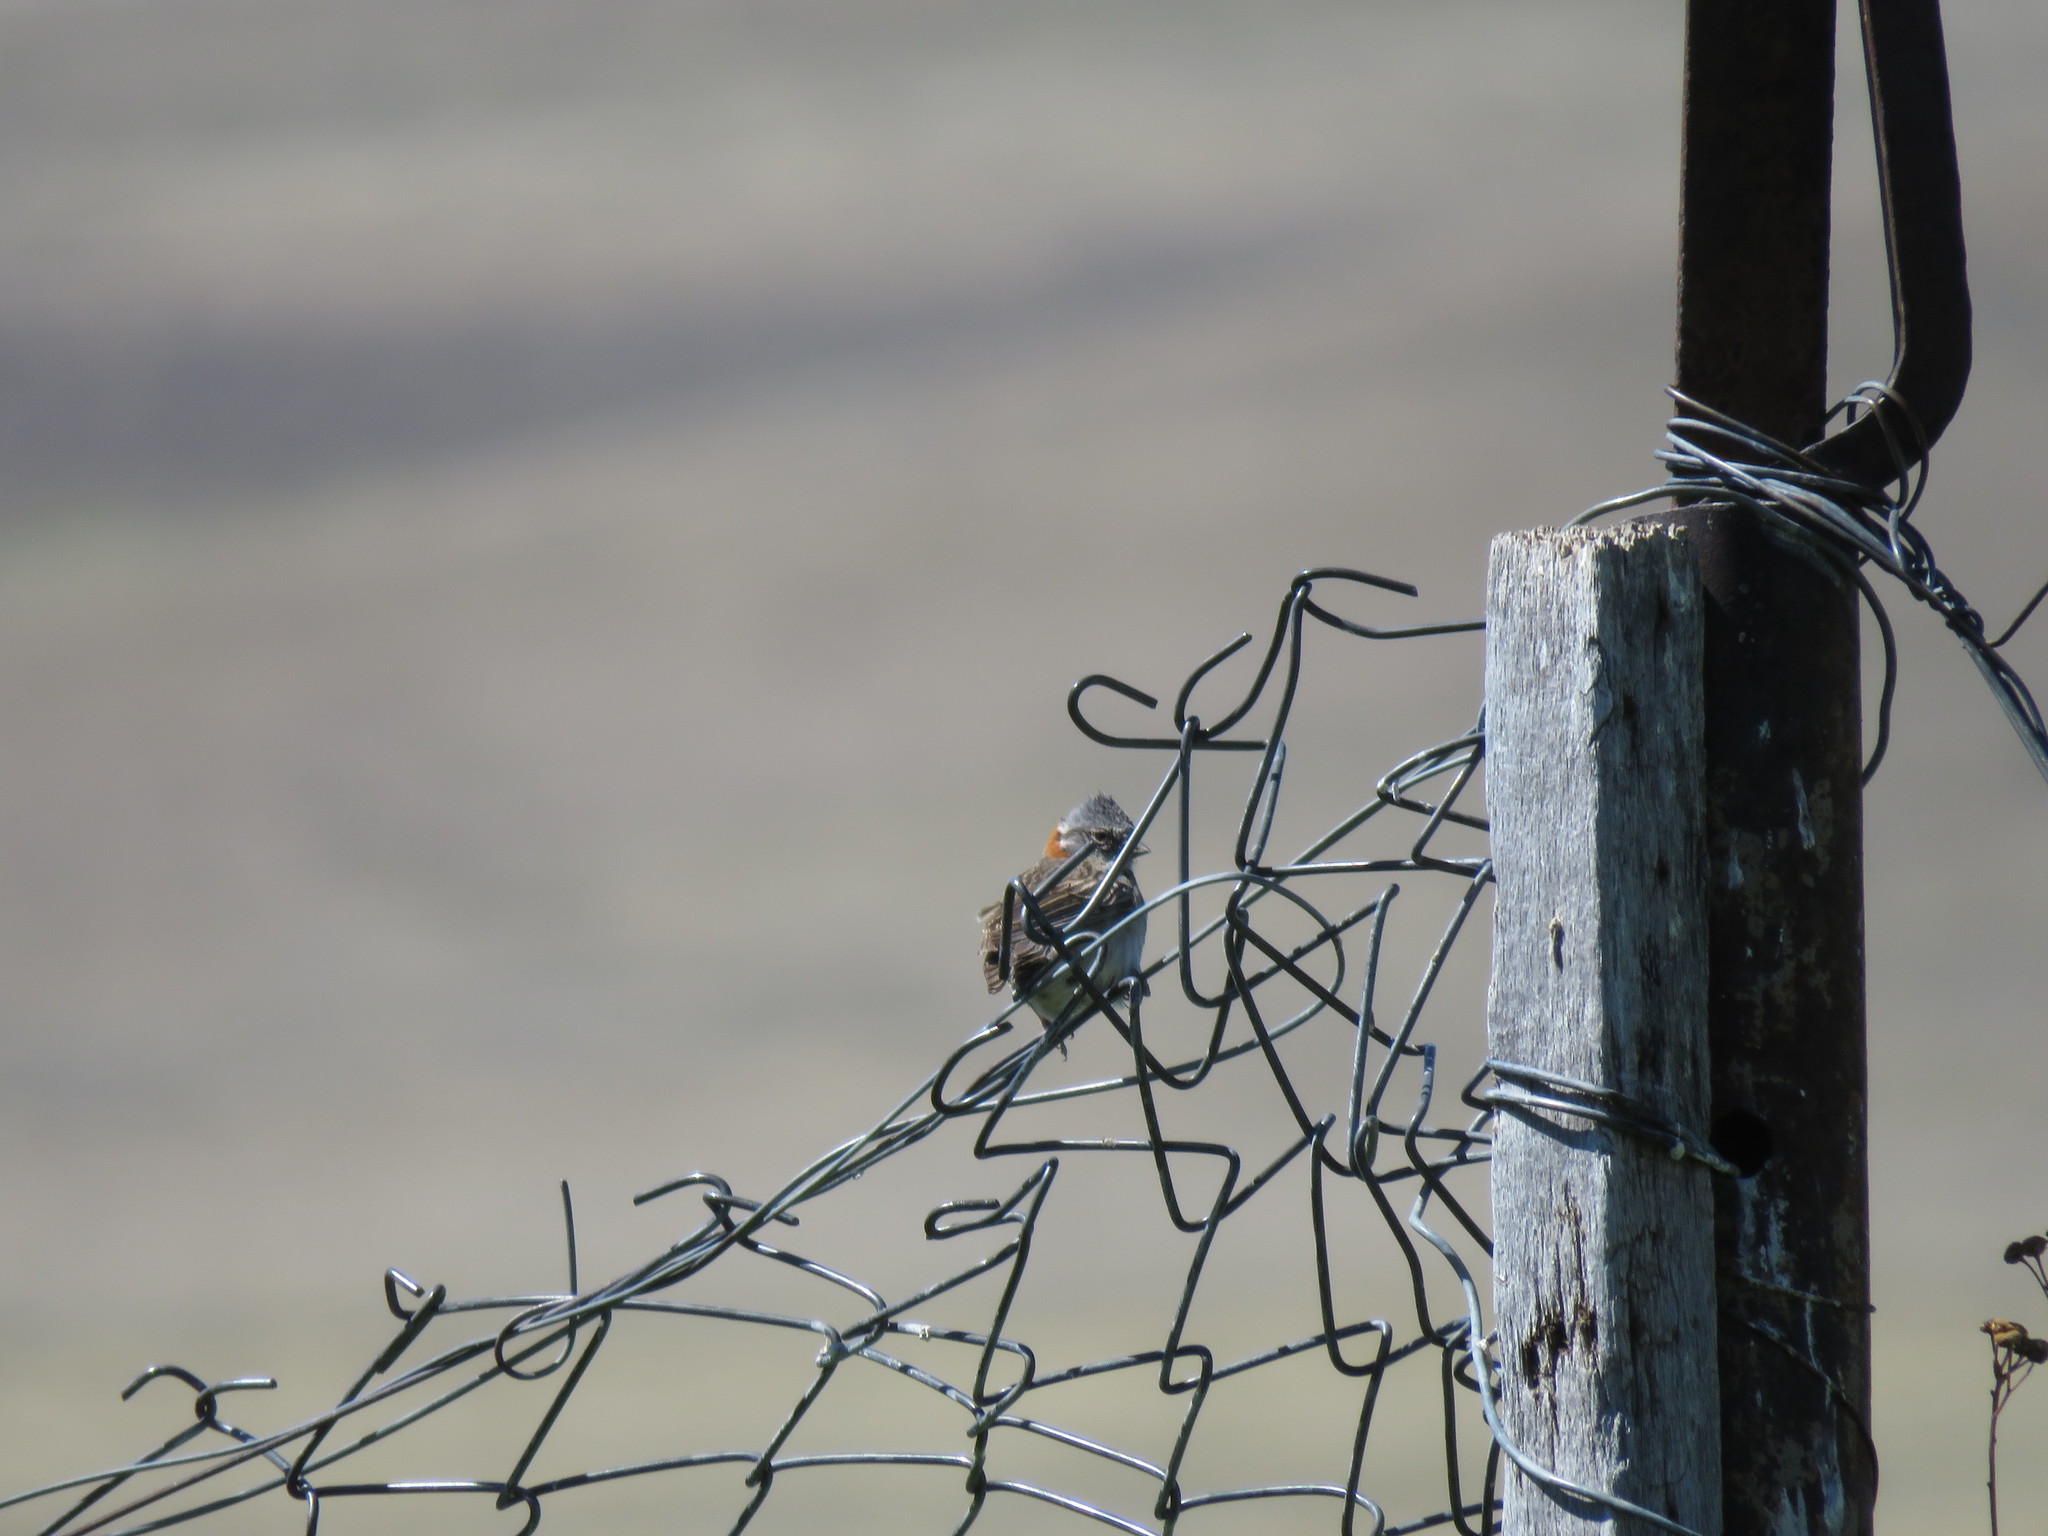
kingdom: Animalia
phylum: Chordata
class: Aves
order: Passeriformes
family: Passerellidae
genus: Zonotrichia
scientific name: Zonotrichia capensis
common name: Rufous-collared sparrow
